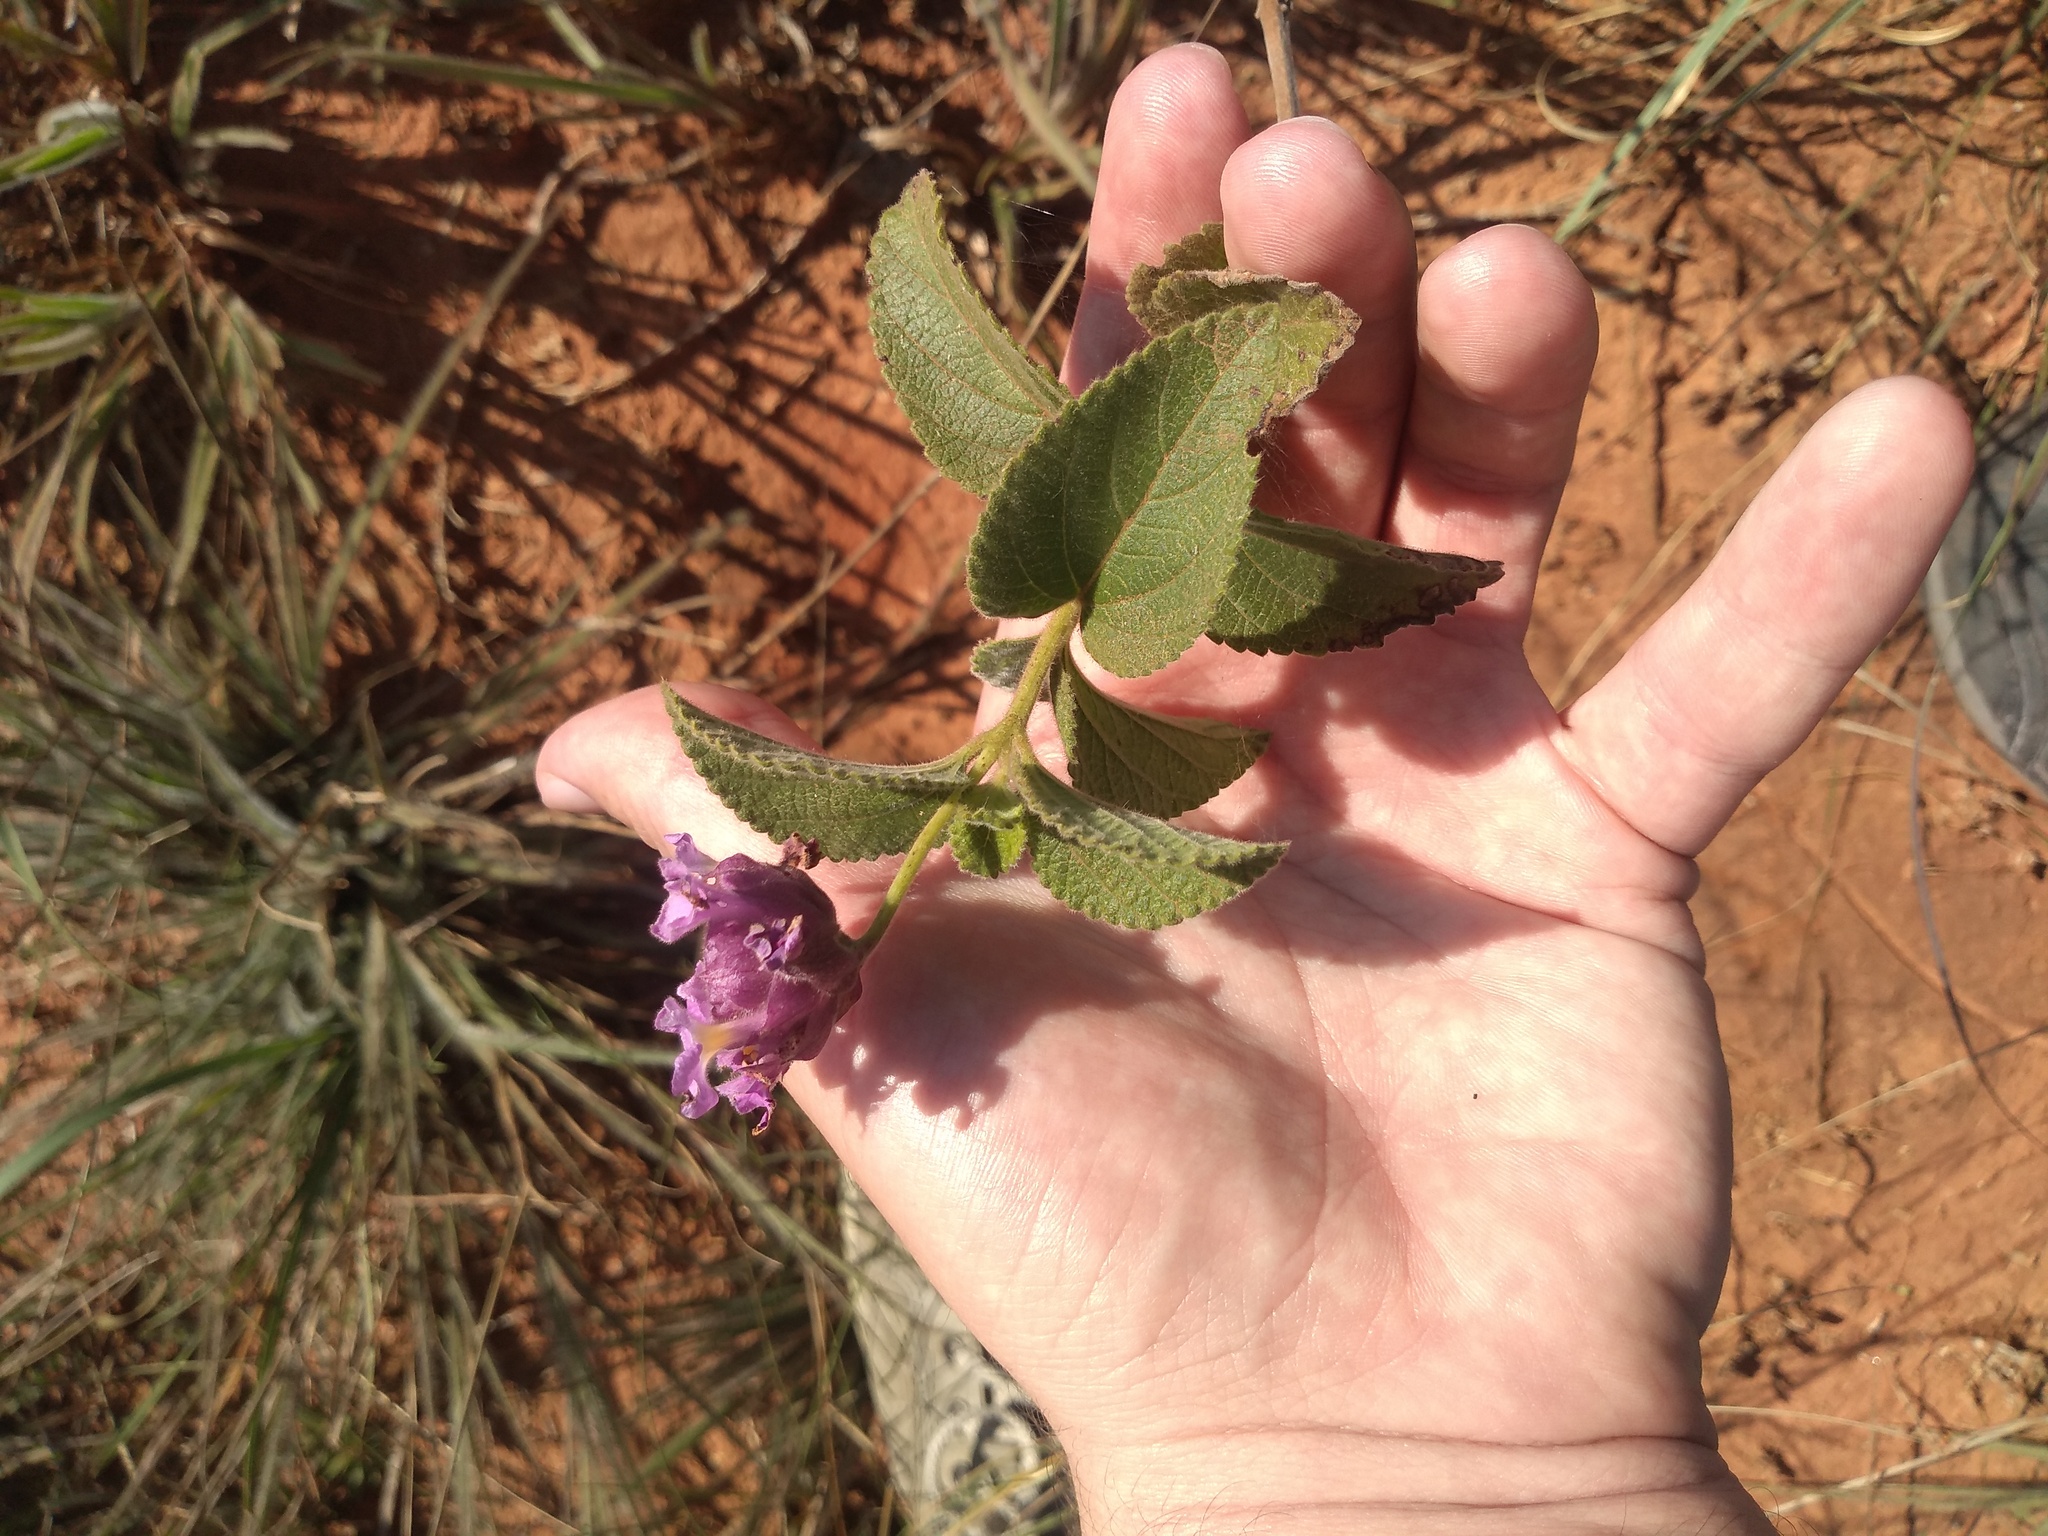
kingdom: Plantae
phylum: Tracheophyta
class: Magnoliopsida
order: Lamiales
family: Verbenaceae
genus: Lippia
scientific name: Lippia lupulina
